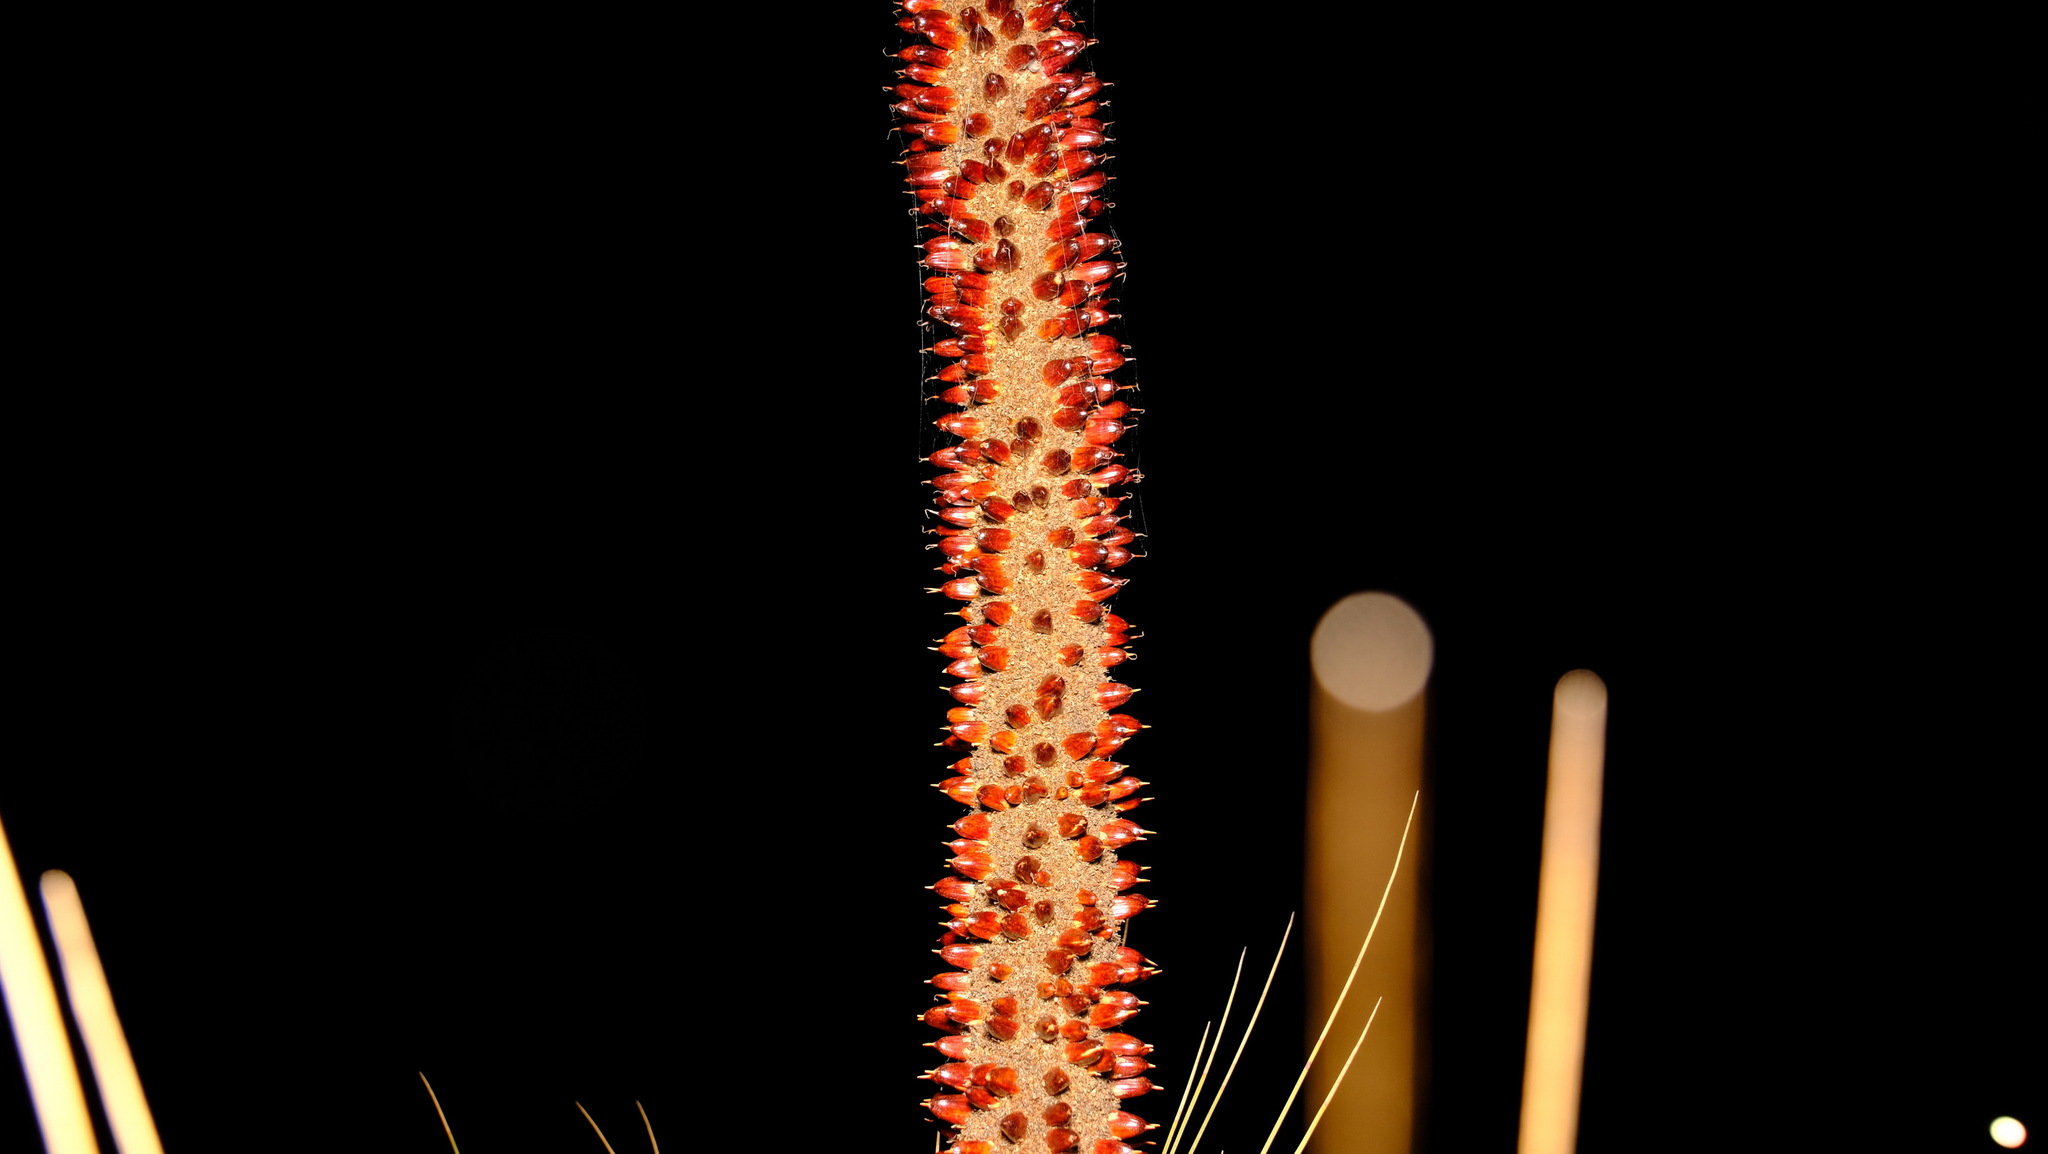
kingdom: Plantae
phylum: Tracheophyta
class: Liliopsida
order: Asparagales
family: Asphodelaceae
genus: Xanthorrhoea
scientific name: Xanthorrhoea drummondii
